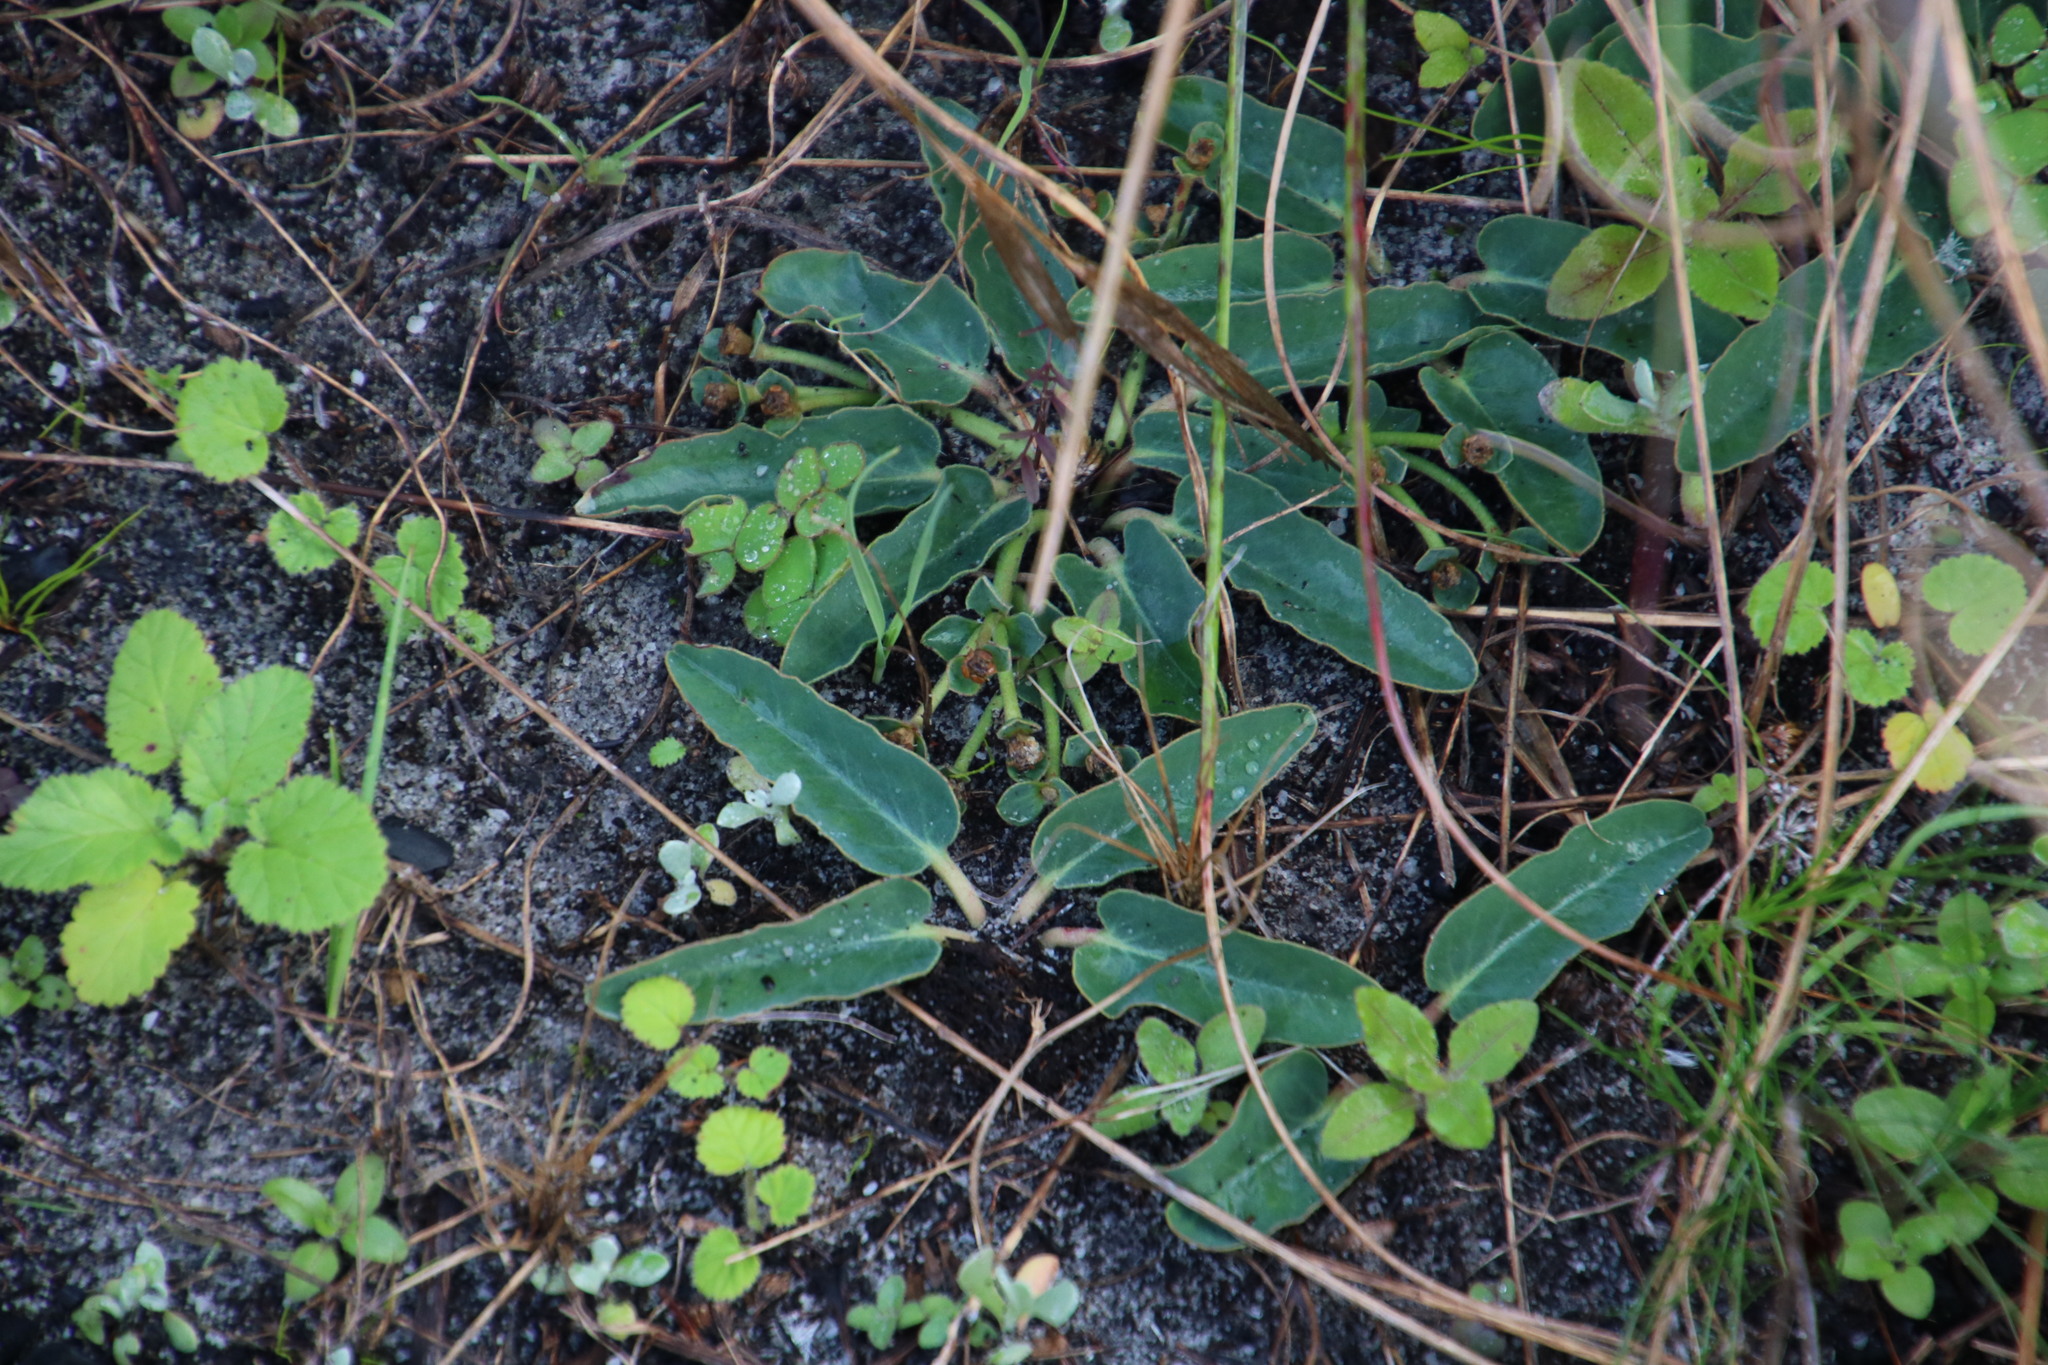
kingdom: Plantae
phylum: Tracheophyta
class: Magnoliopsida
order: Malpighiales
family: Euphorbiaceae
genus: Euphorbia
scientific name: Euphorbia tuberosa
